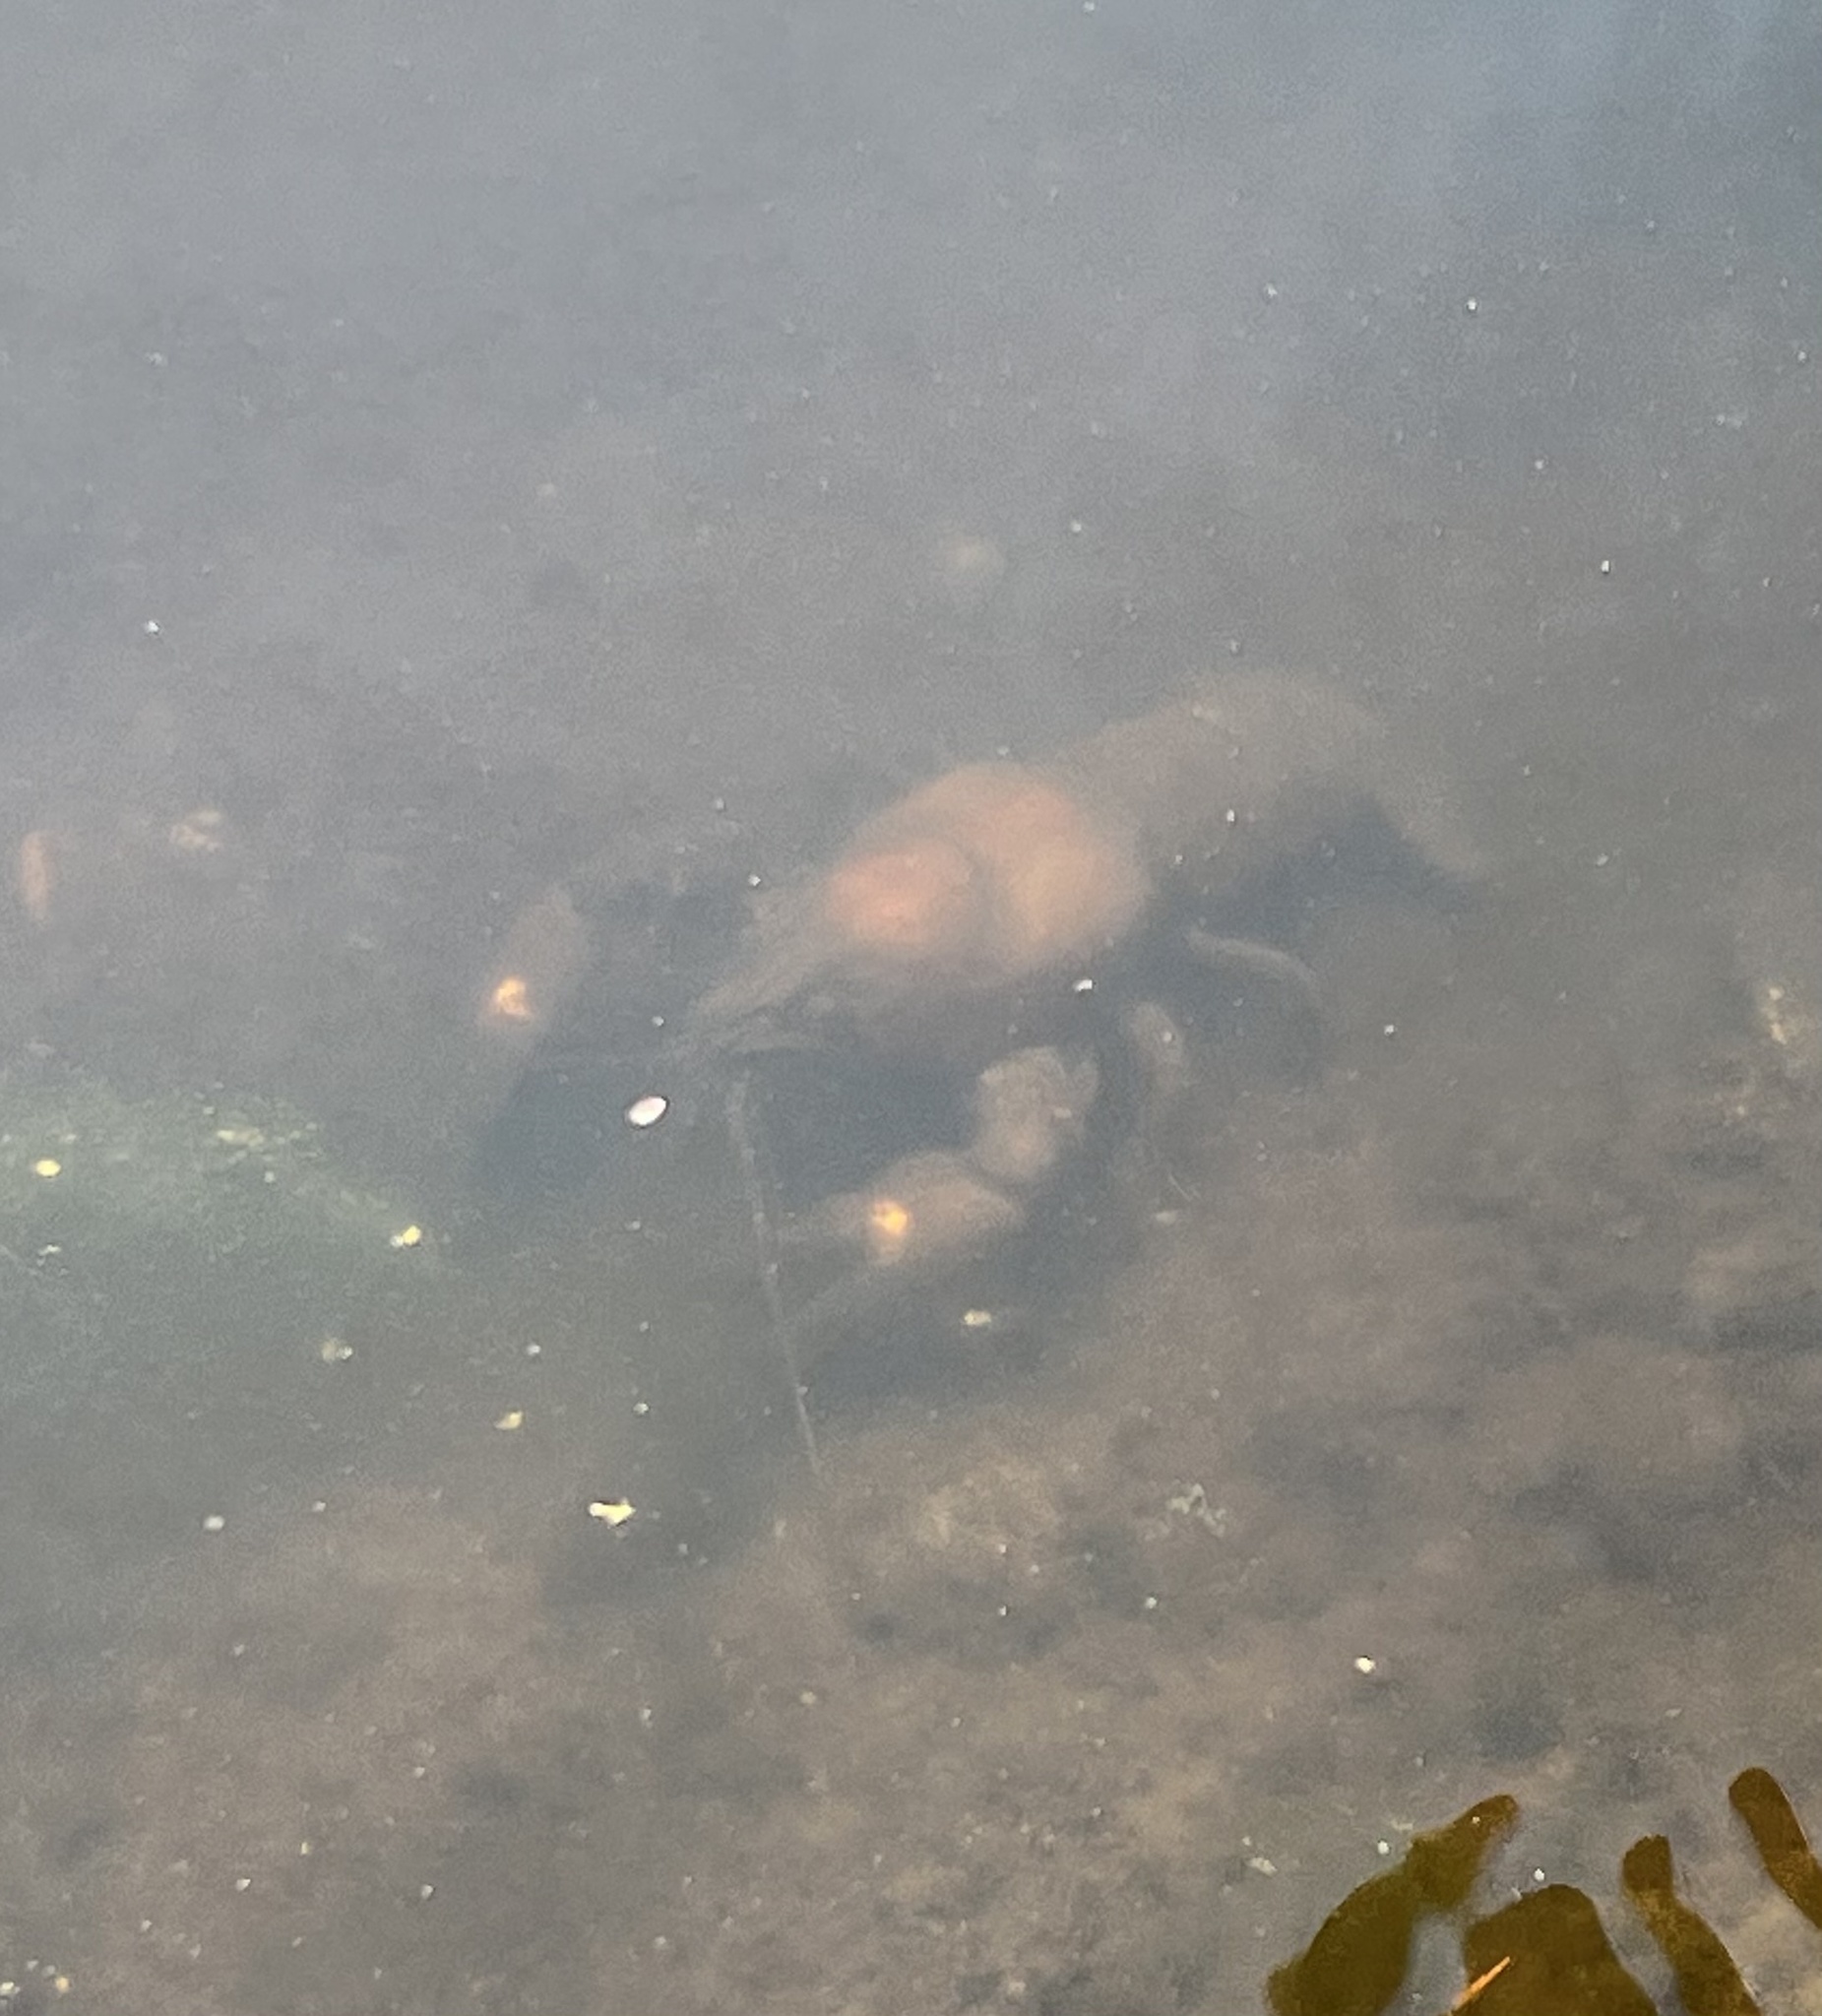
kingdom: Animalia
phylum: Arthropoda
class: Malacostraca
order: Decapoda
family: Astacidae
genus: Pacifastacus
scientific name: Pacifastacus leniusculus
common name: Signal crayfish
